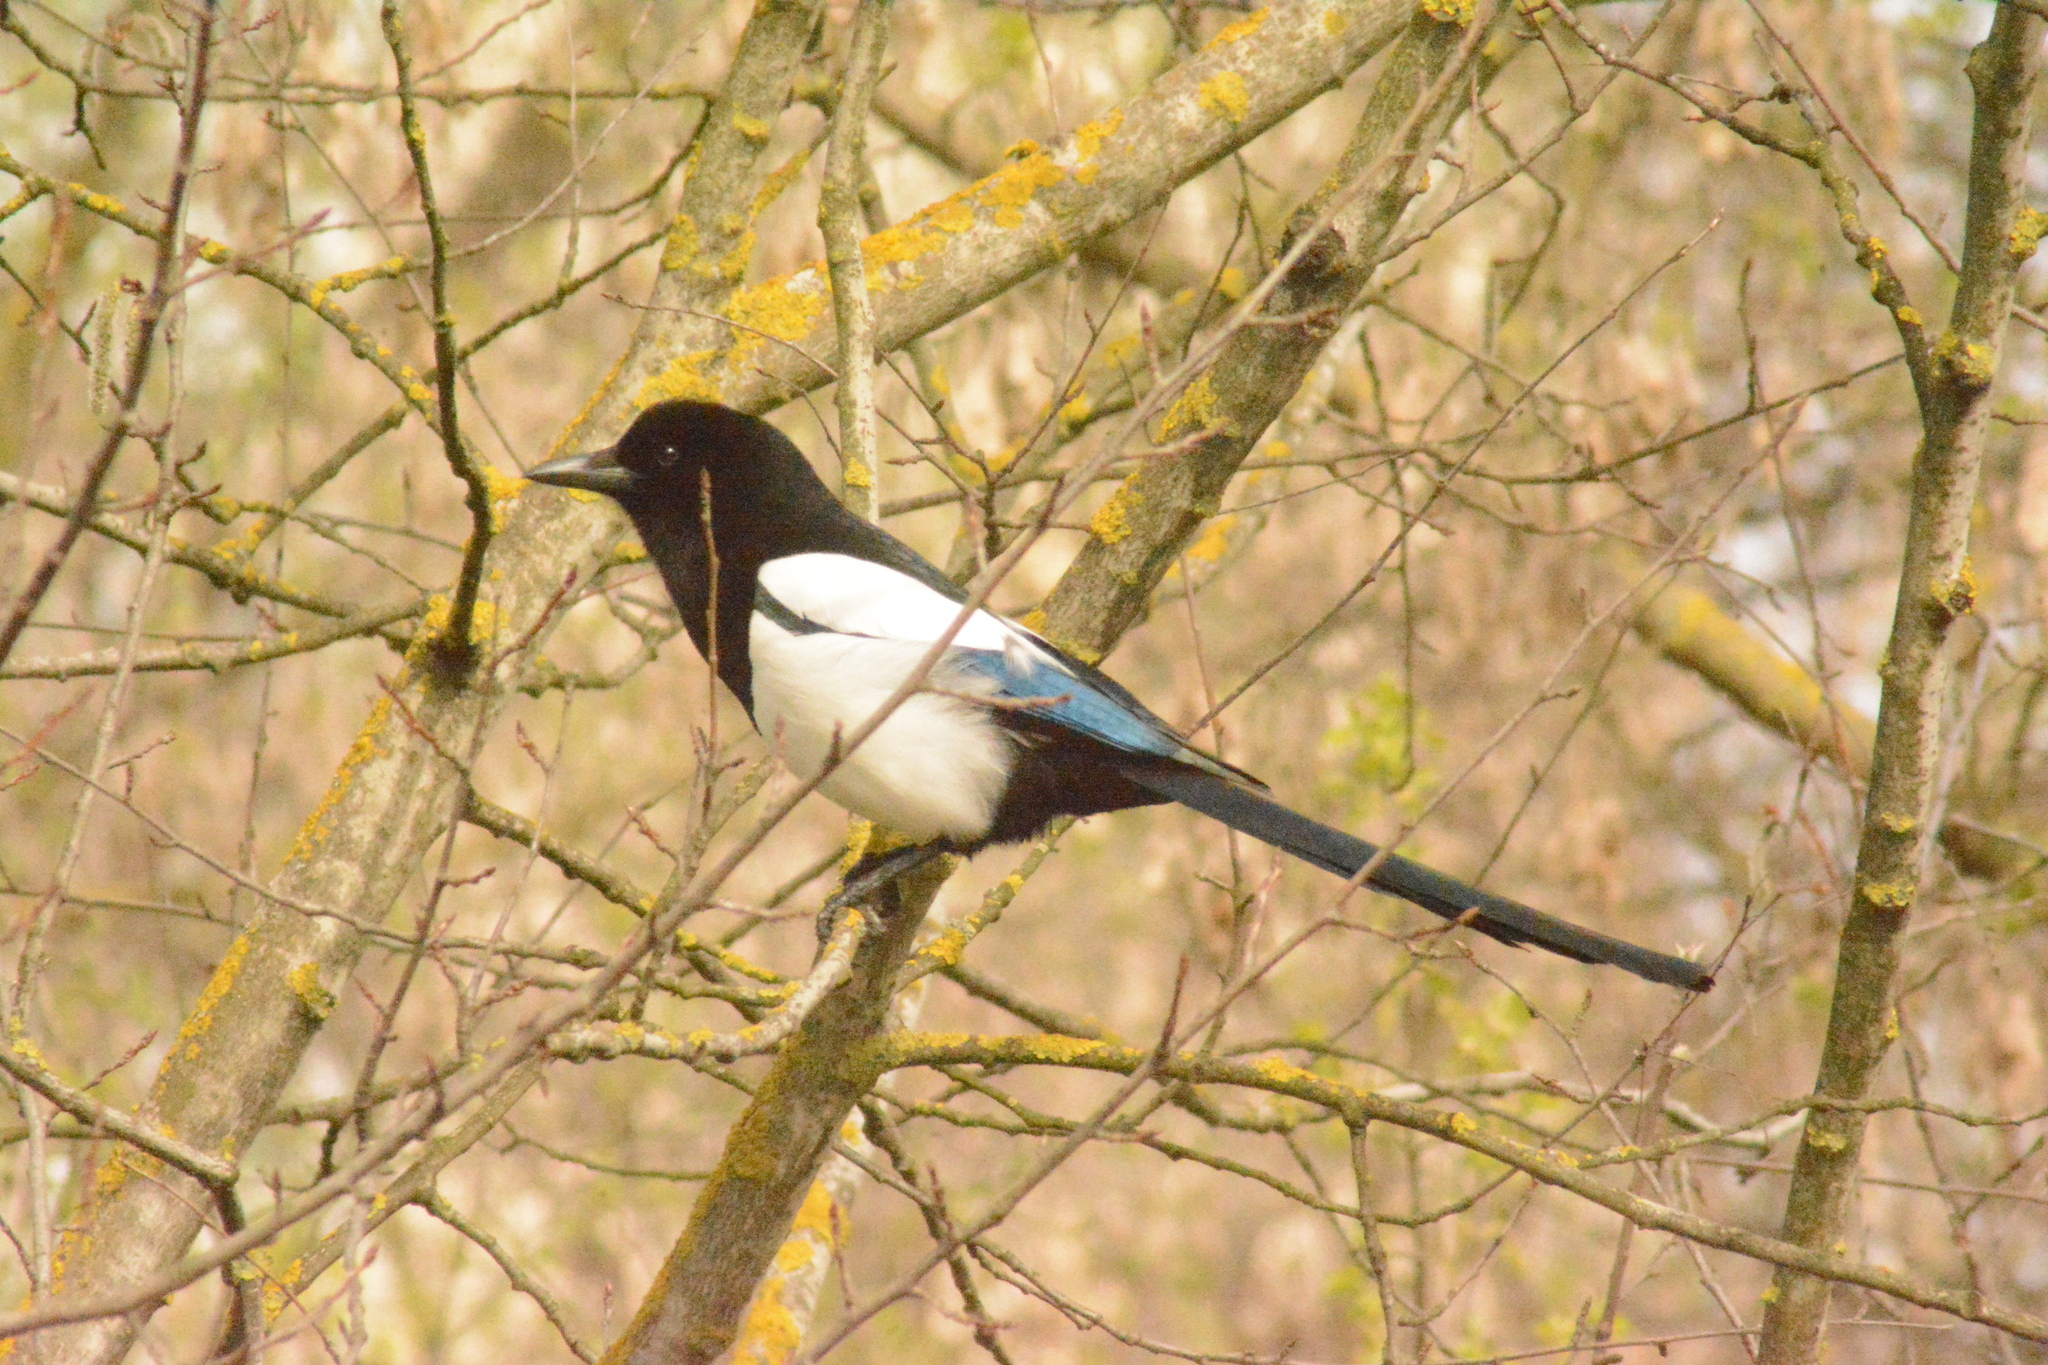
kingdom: Animalia
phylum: Chordata
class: Aves
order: Passeriformes
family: Corvidae
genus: Pica
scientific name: Pica pica
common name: Eurasian magpie
